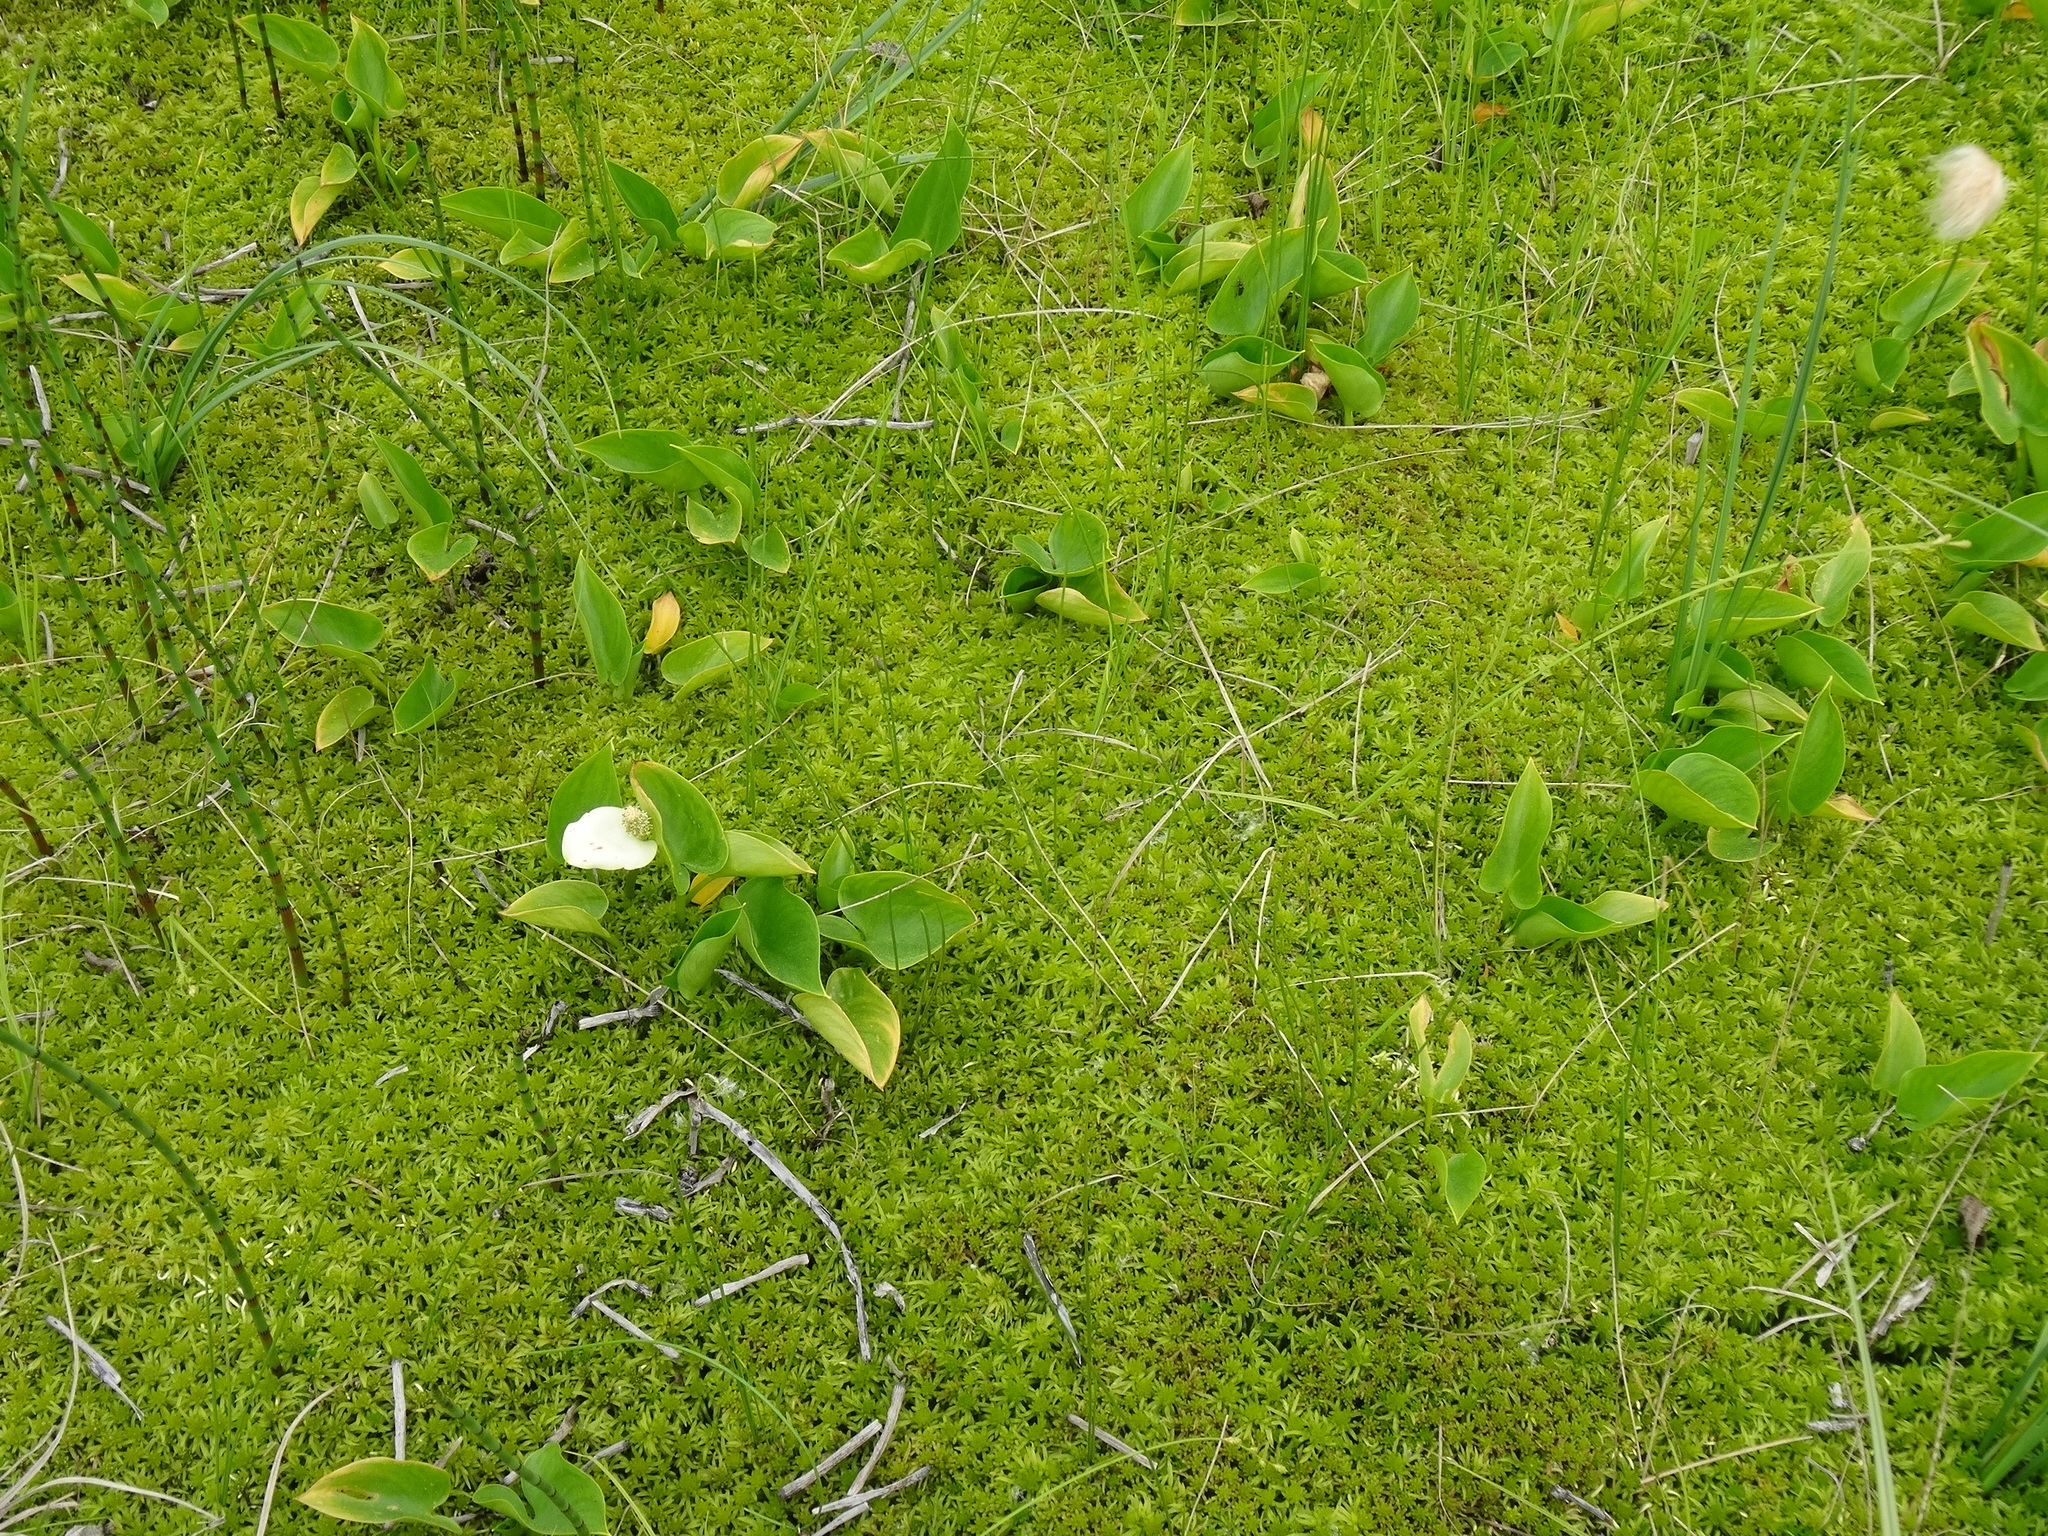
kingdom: Plantae
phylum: Tracheophyta
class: Liliopsida
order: Alismatales
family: Araceae
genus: Calla
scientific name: Calla palustris
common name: Bog arum
